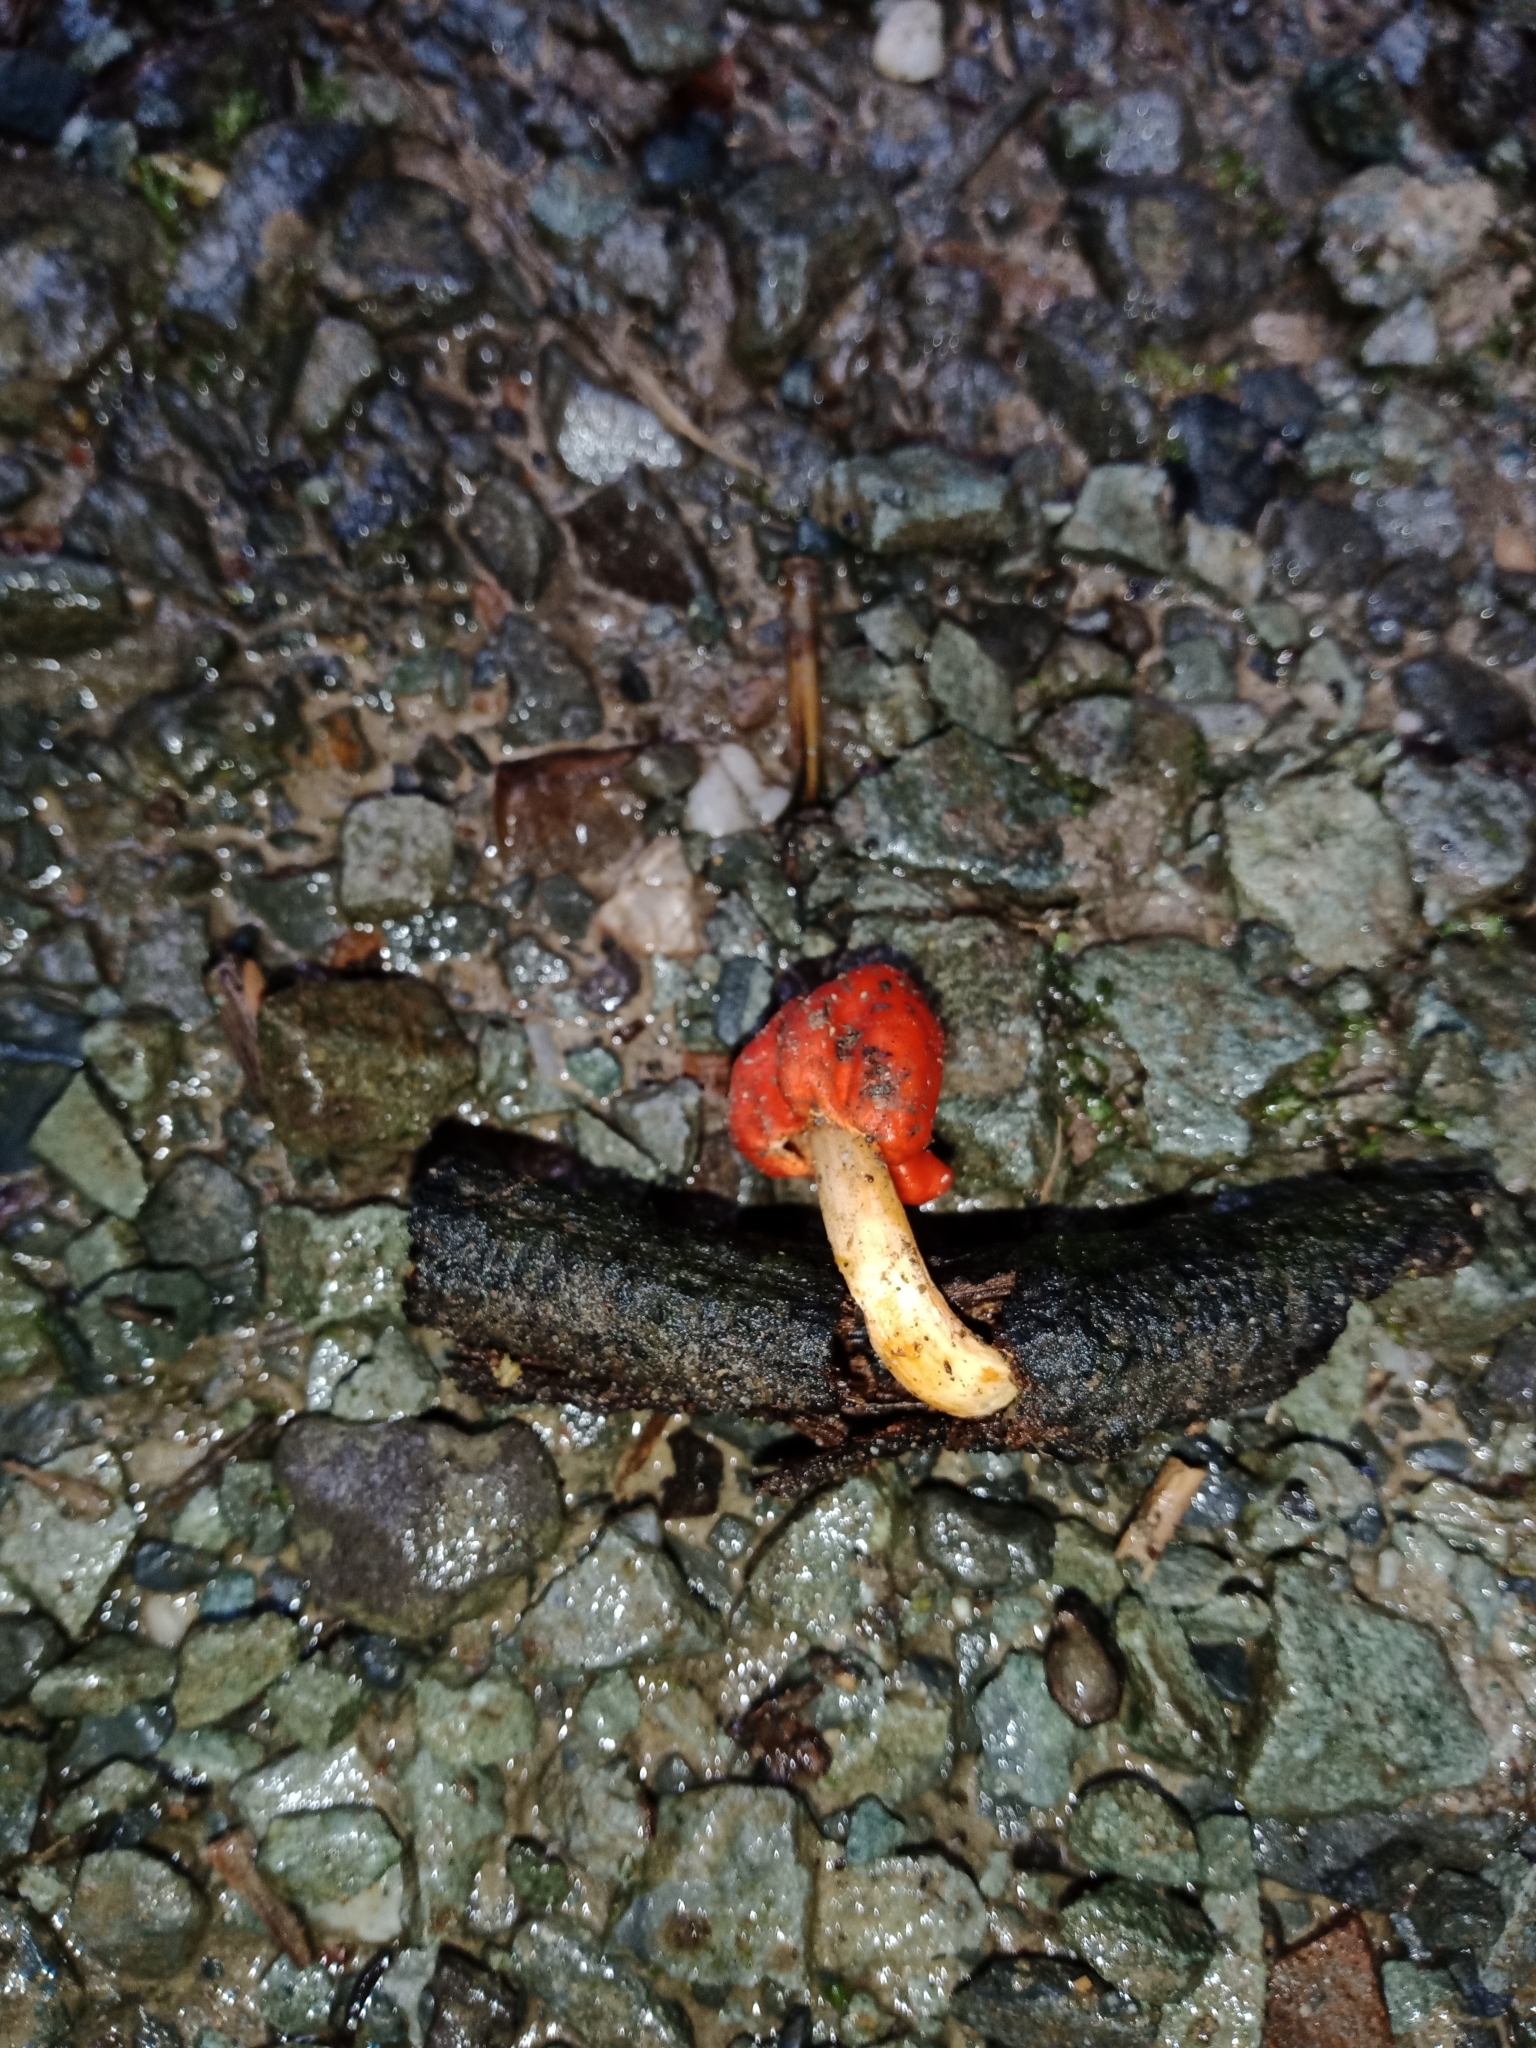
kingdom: Fungi
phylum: Basidiomycota
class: Agaricomycetes
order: Agaricales
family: Strophariaceae
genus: Leratiomyces
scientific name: Leratiomyces erythrocephalus
